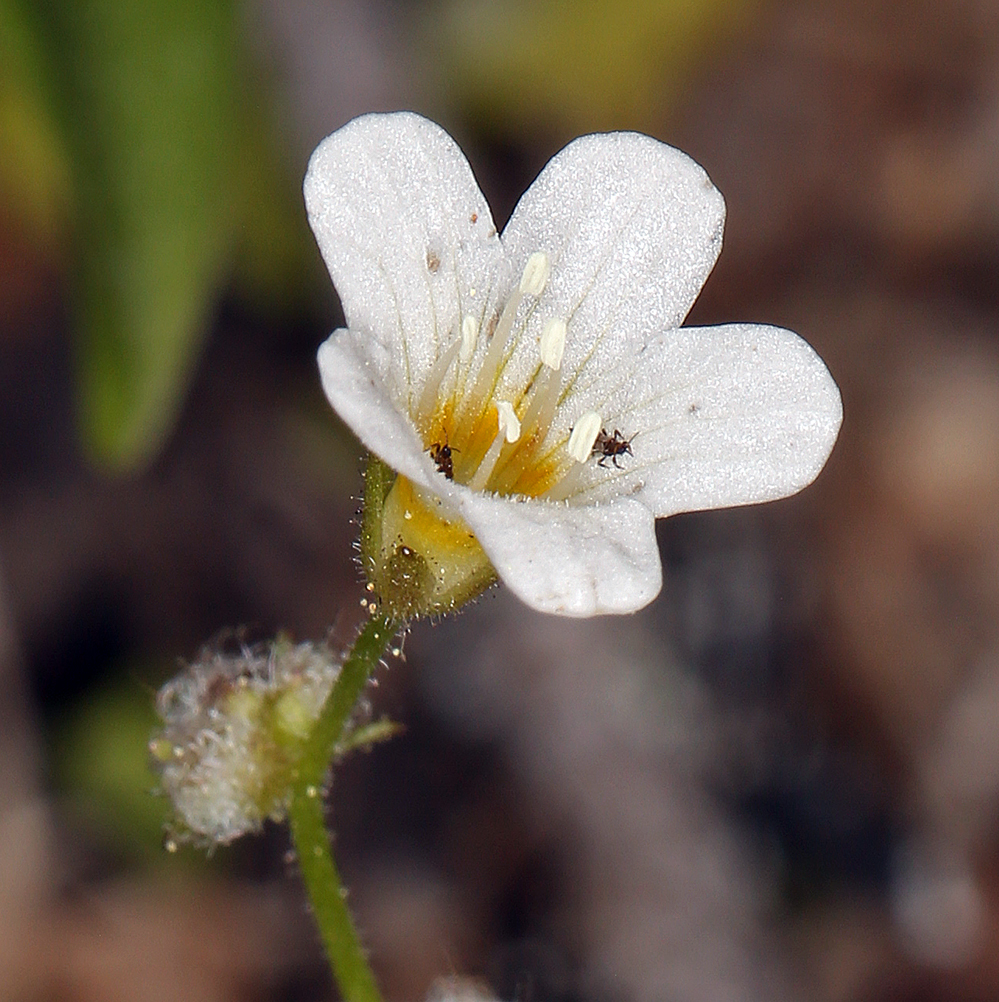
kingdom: Plantae
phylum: Tracheophyta
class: Magnoliopsida
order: Boraginales
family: Hydrophyllaceae
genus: Romanzoffia
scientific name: Romanzoffia californica
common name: California mistmaiden
